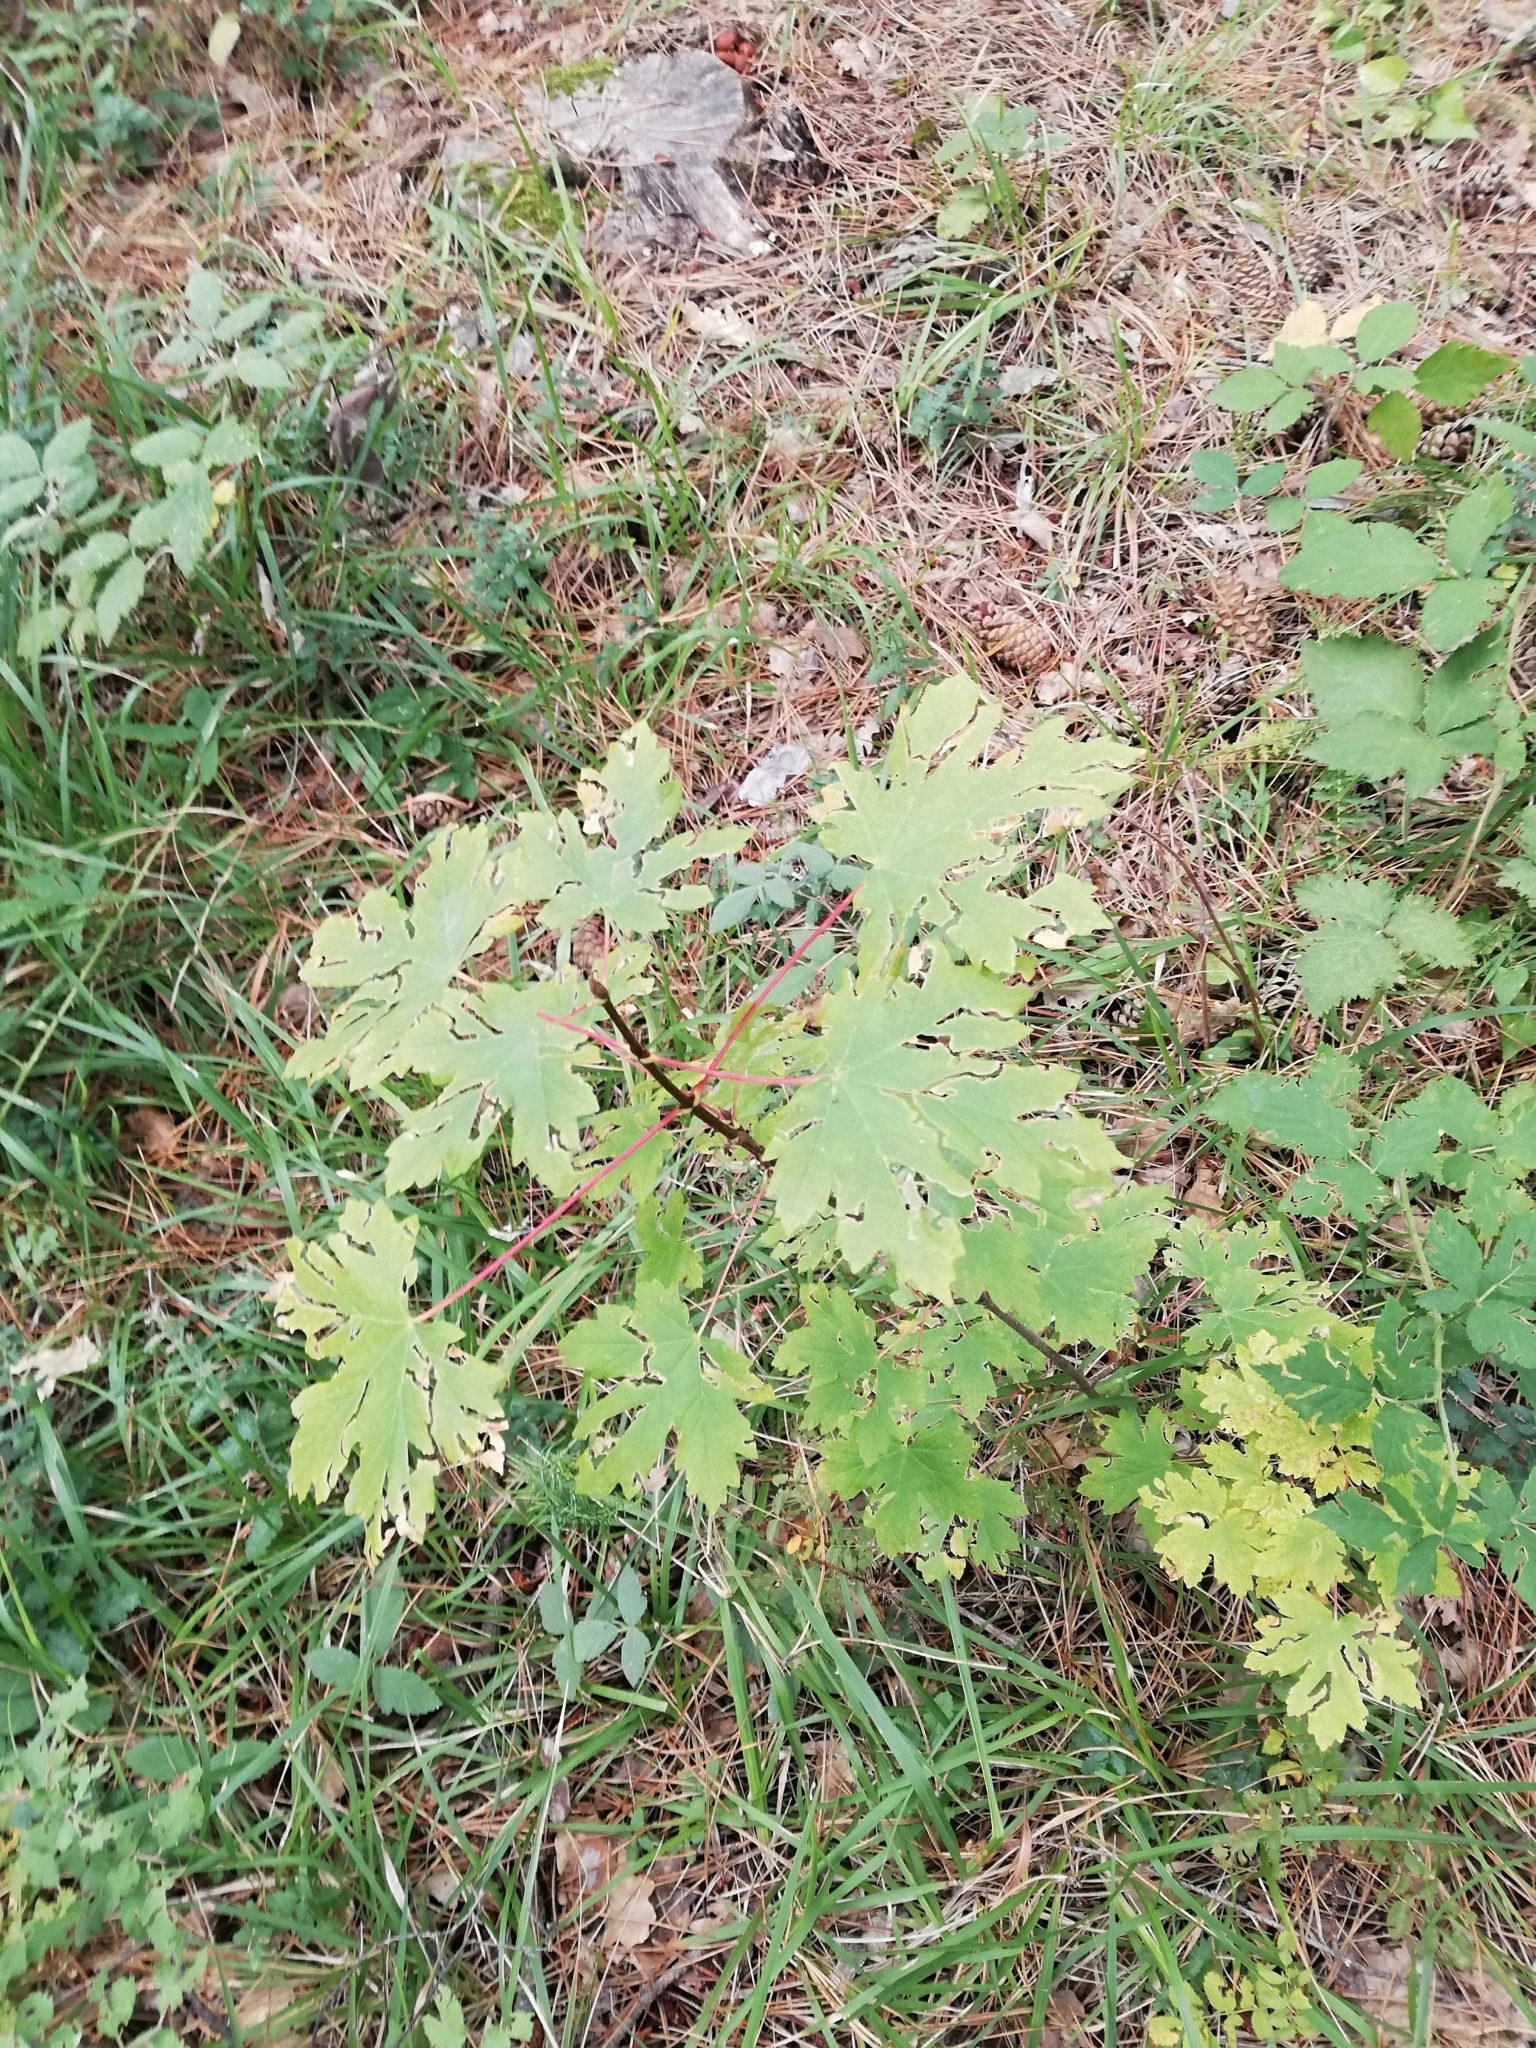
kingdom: Plantae
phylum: Tracheophyta
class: Magnoliopsida
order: Sapindales
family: Sapindaceae
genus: Acer
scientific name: Acer pseudoplatanus
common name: Sycamore
